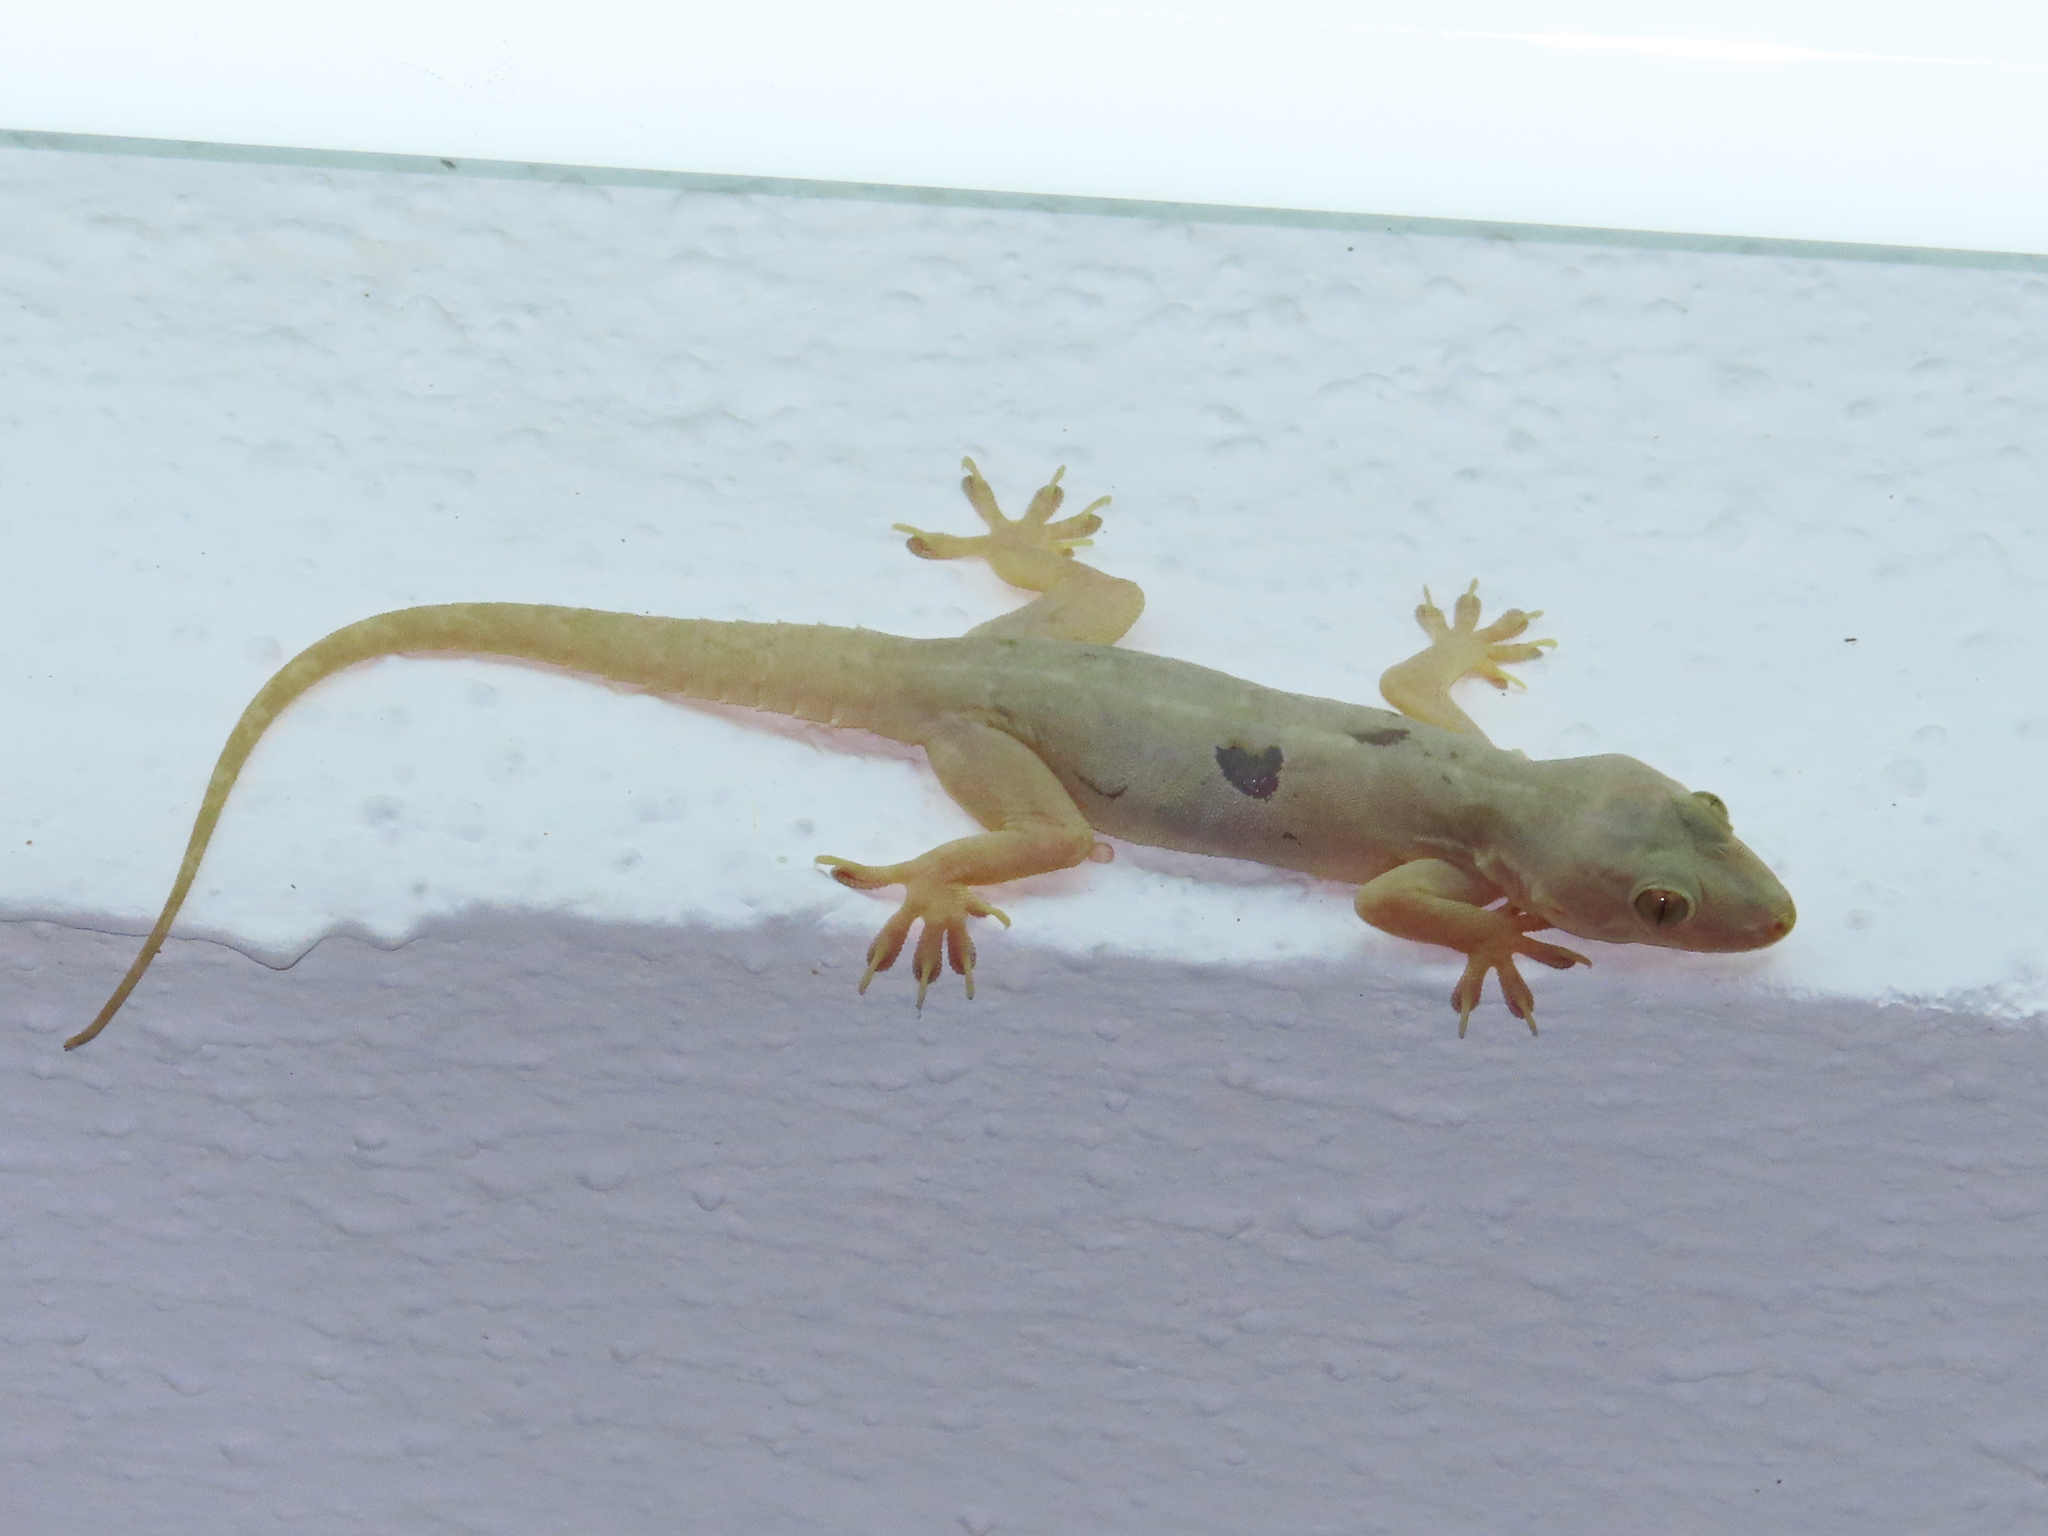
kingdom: Animalia
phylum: Chordata
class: Squamata
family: Gekkonidae
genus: Hemidactylus
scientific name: Hemidactylus flaviviridis
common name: Northern house gecko
